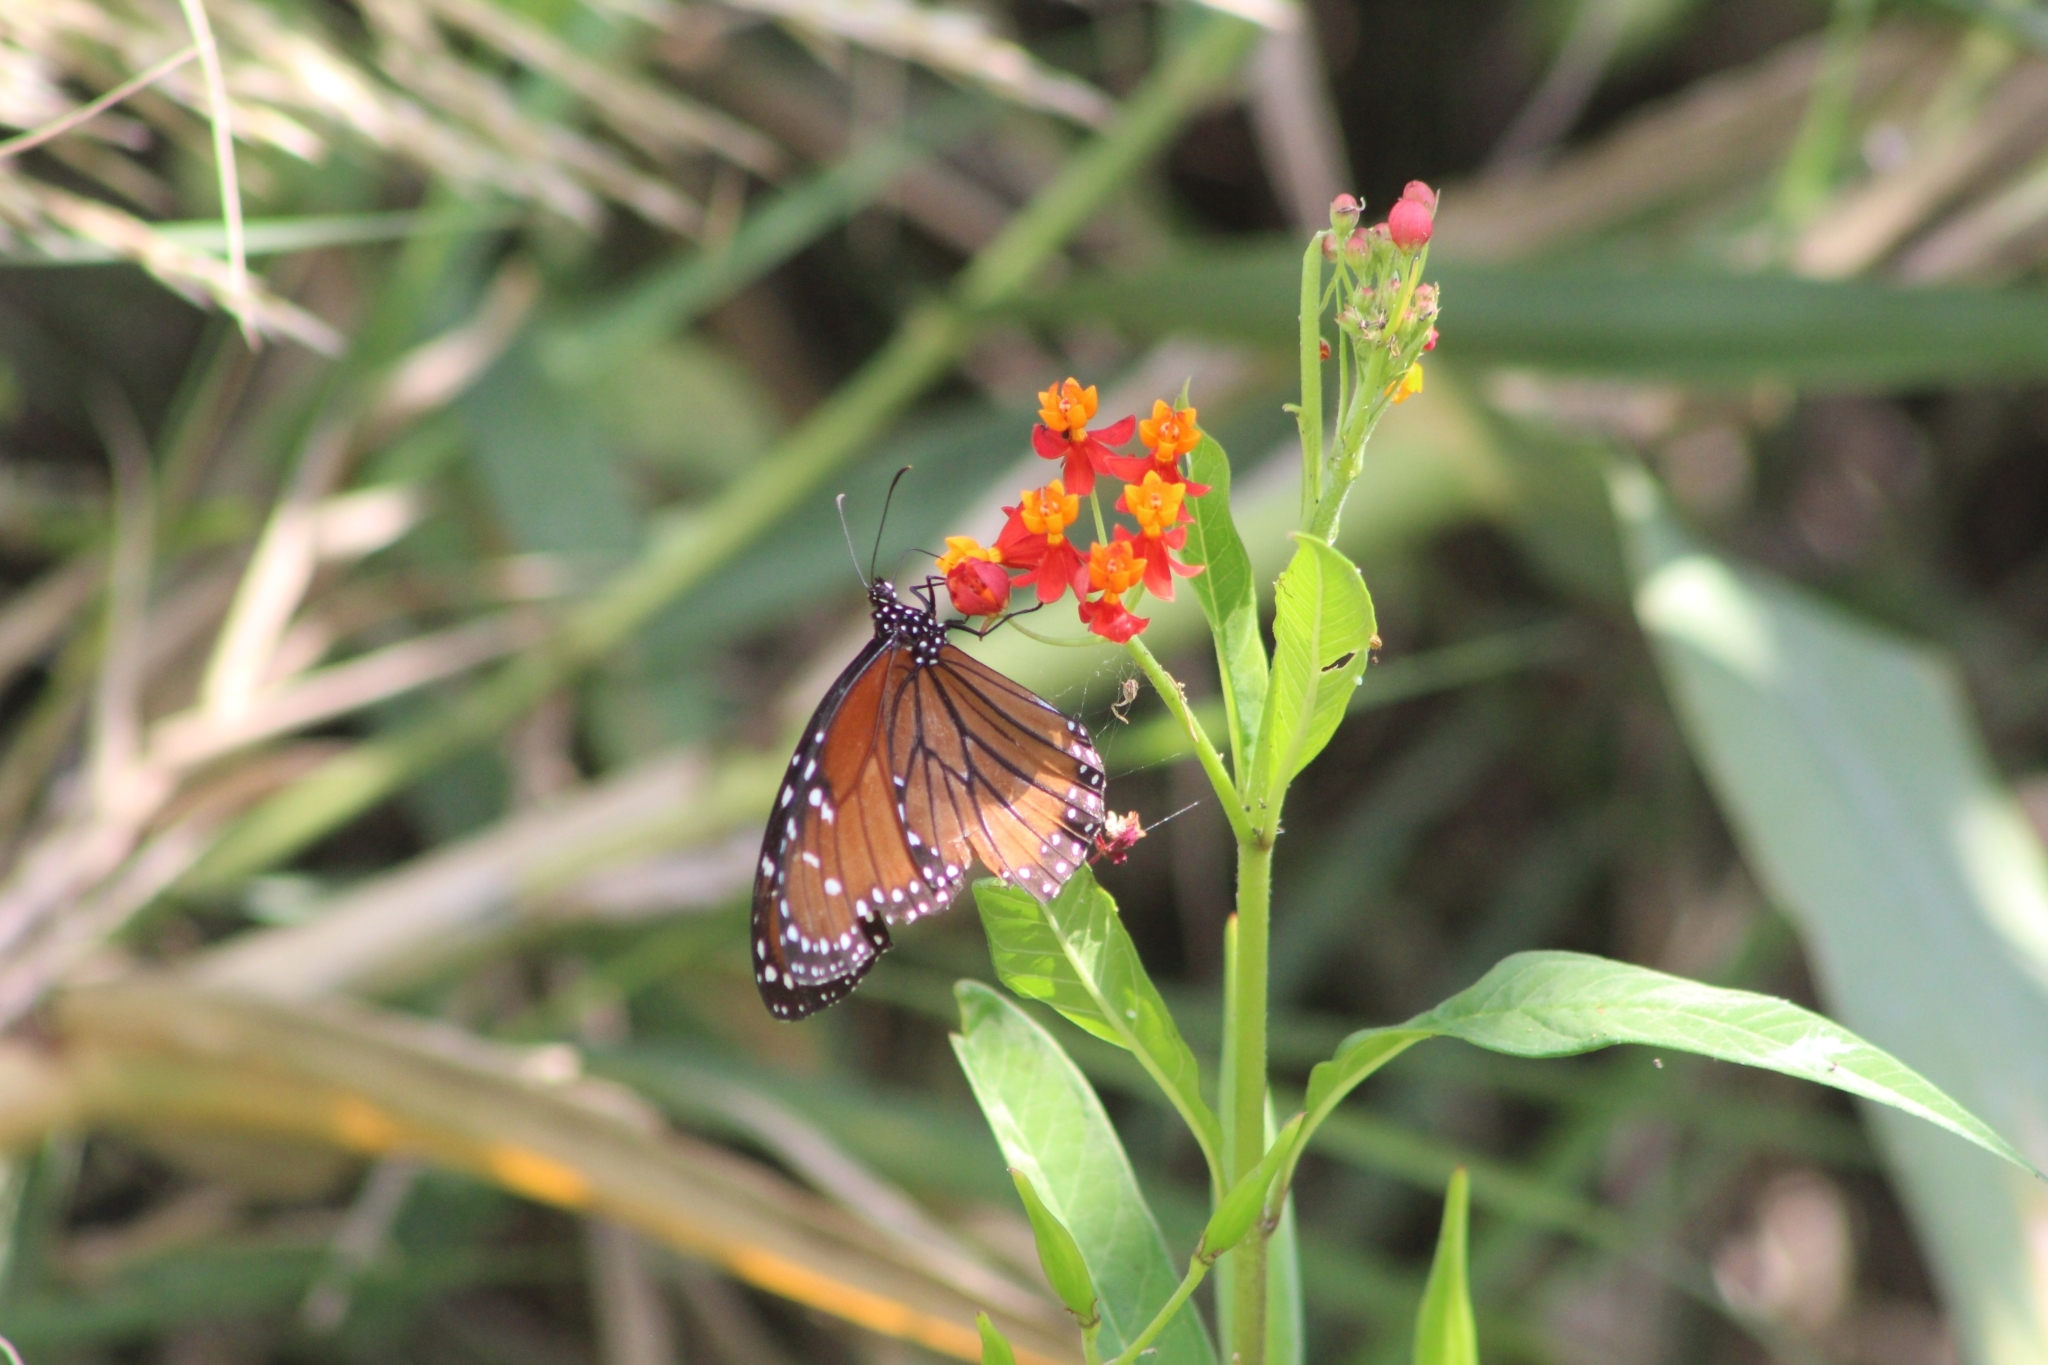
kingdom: Animalia
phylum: Arthropoda
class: Insecta
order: Lepidoptera
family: Nymphalidae
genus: Danaus
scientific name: Danaus eresimus
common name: Soldier
